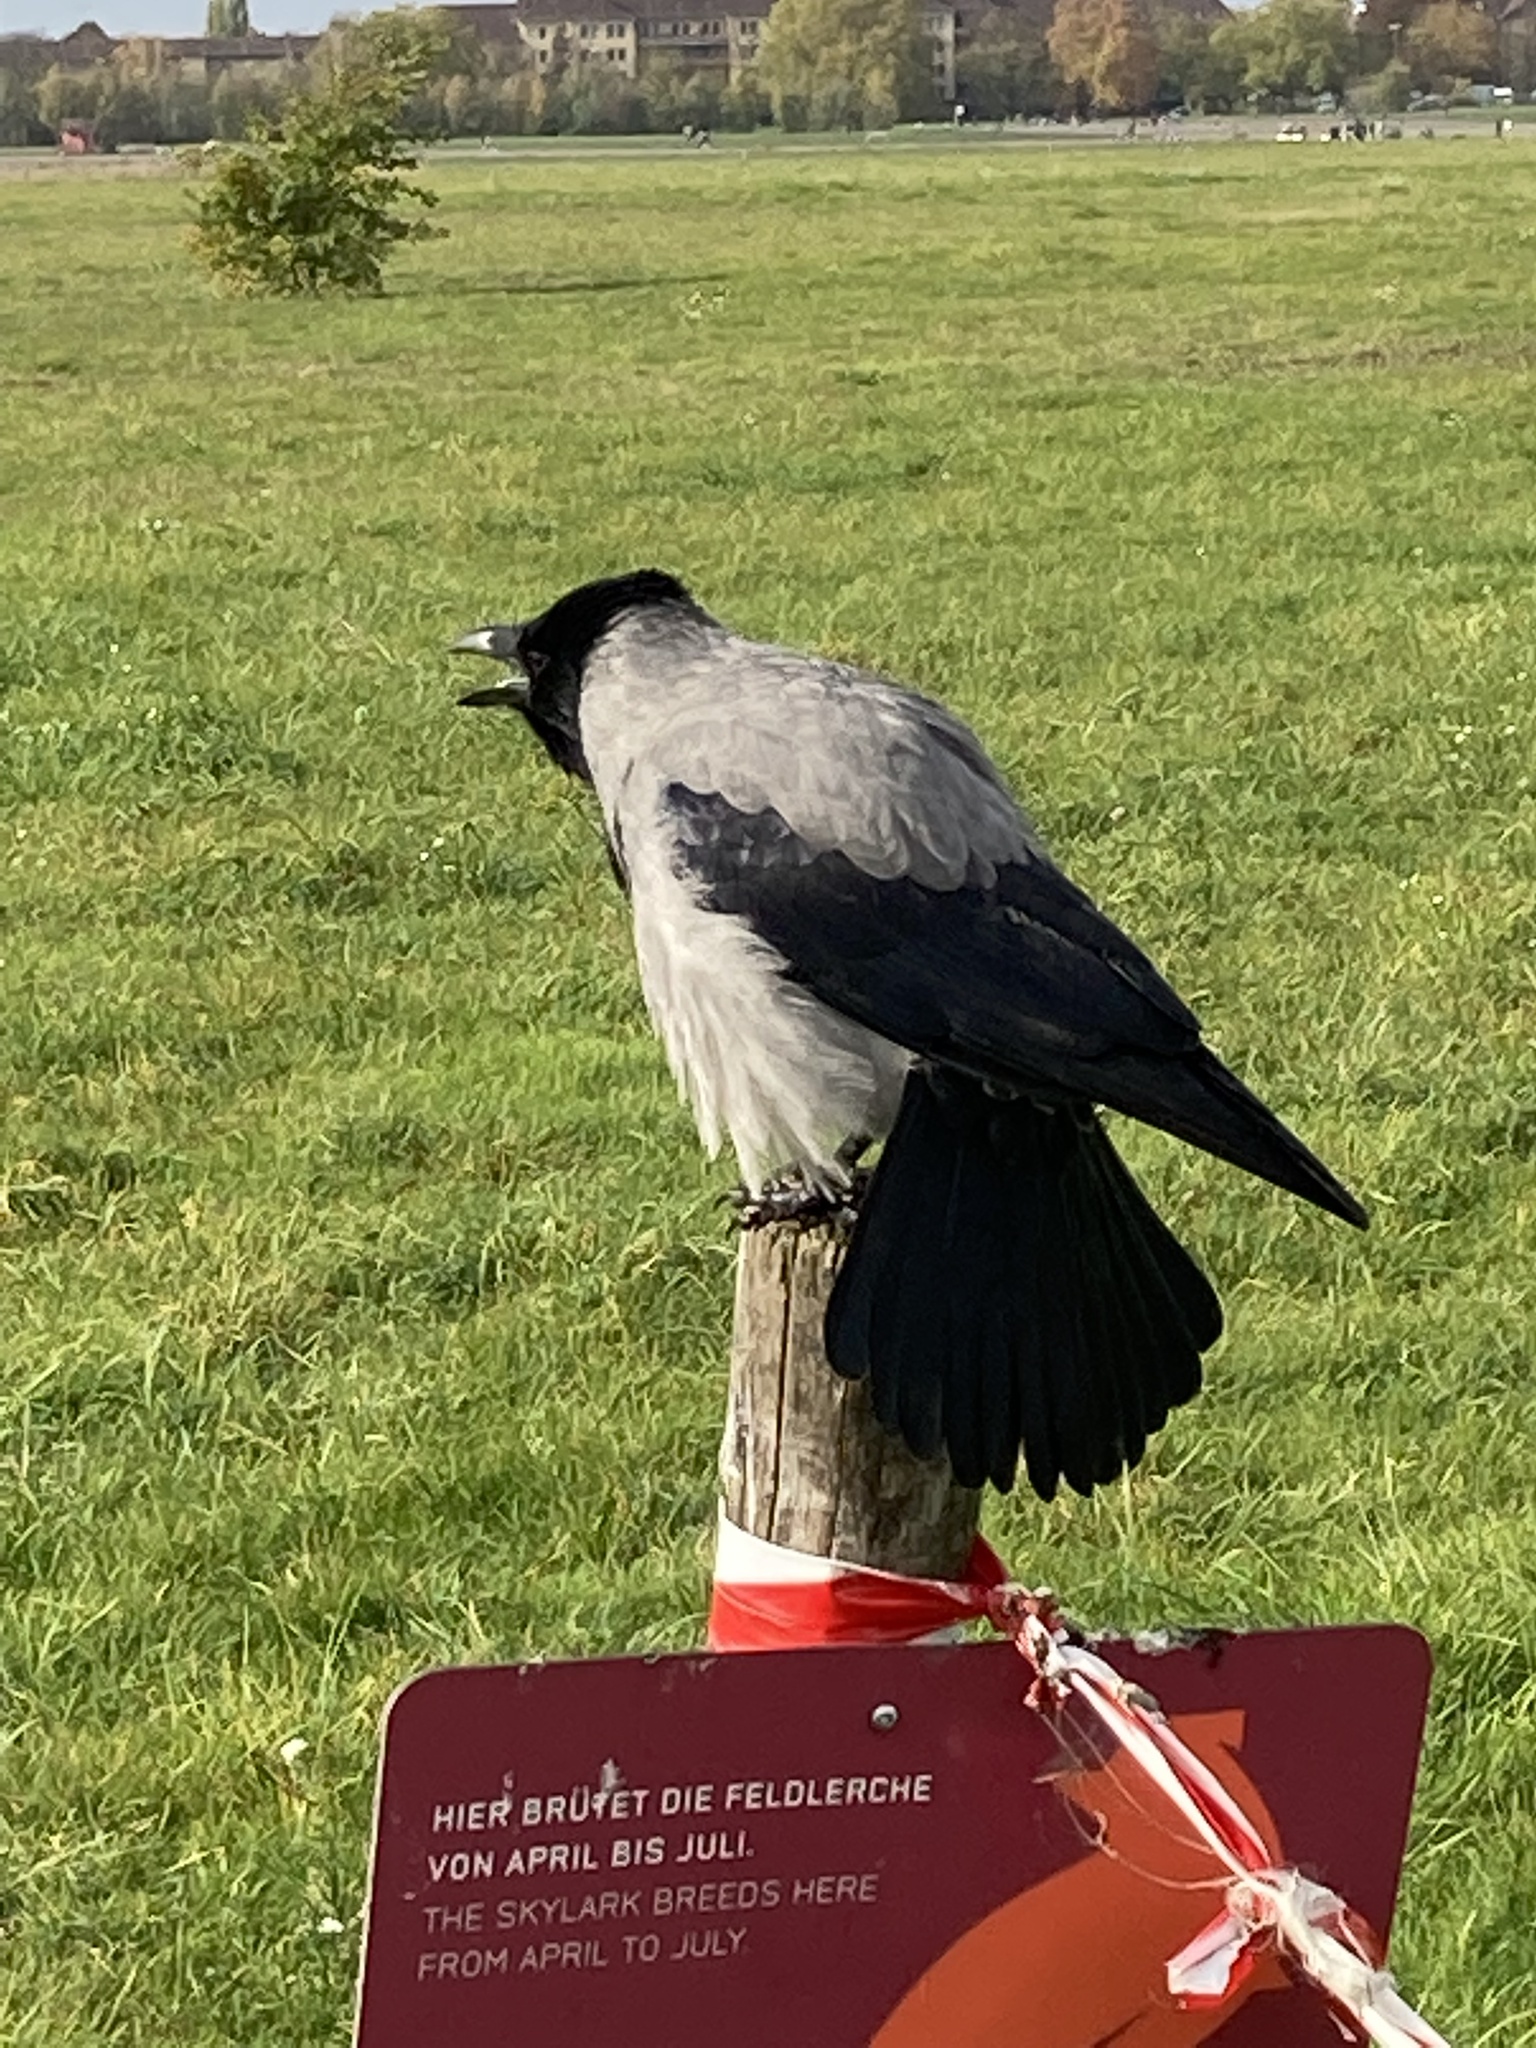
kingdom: Animalia
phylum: Chordata
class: Aves
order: Passeriformes
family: Corvidae
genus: Corvus
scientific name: Corvus cornix
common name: Hooded crow
